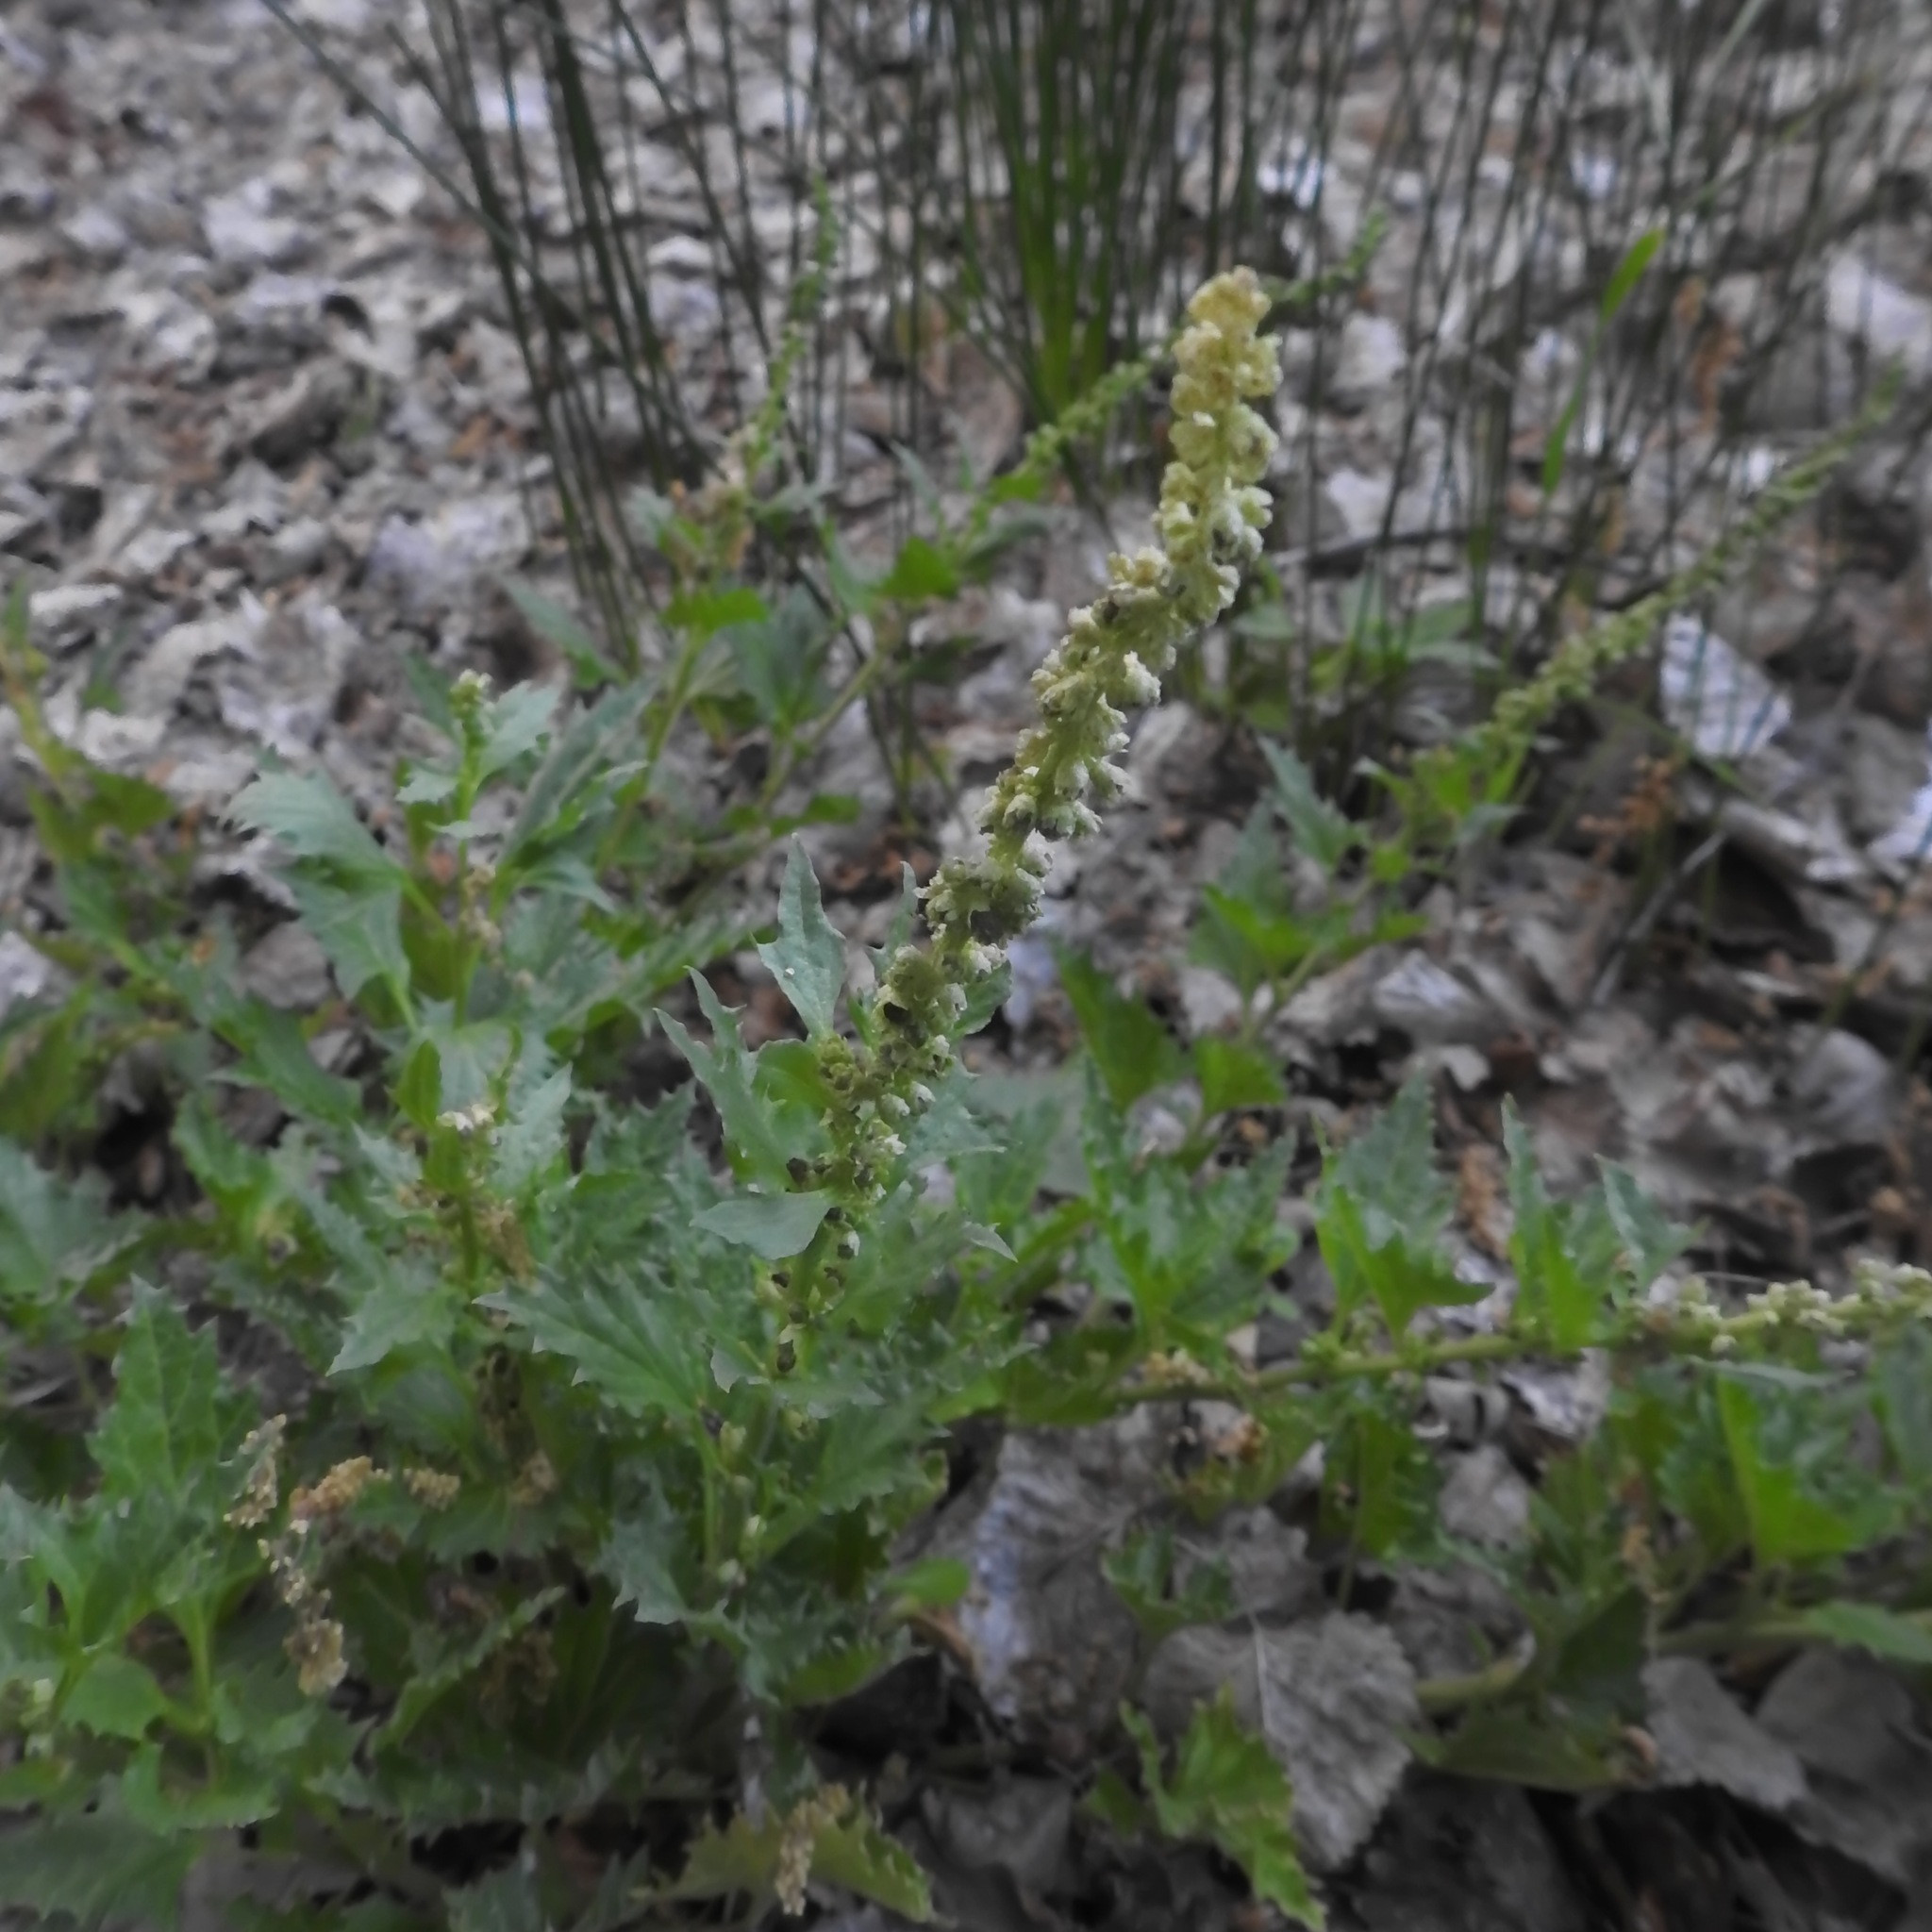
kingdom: Plantae
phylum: Tracheophyta
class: Magnoliopsida
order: Caryophyllales
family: Amaranthaceae
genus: Blitum
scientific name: Blitum californicum
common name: California goosefoot
